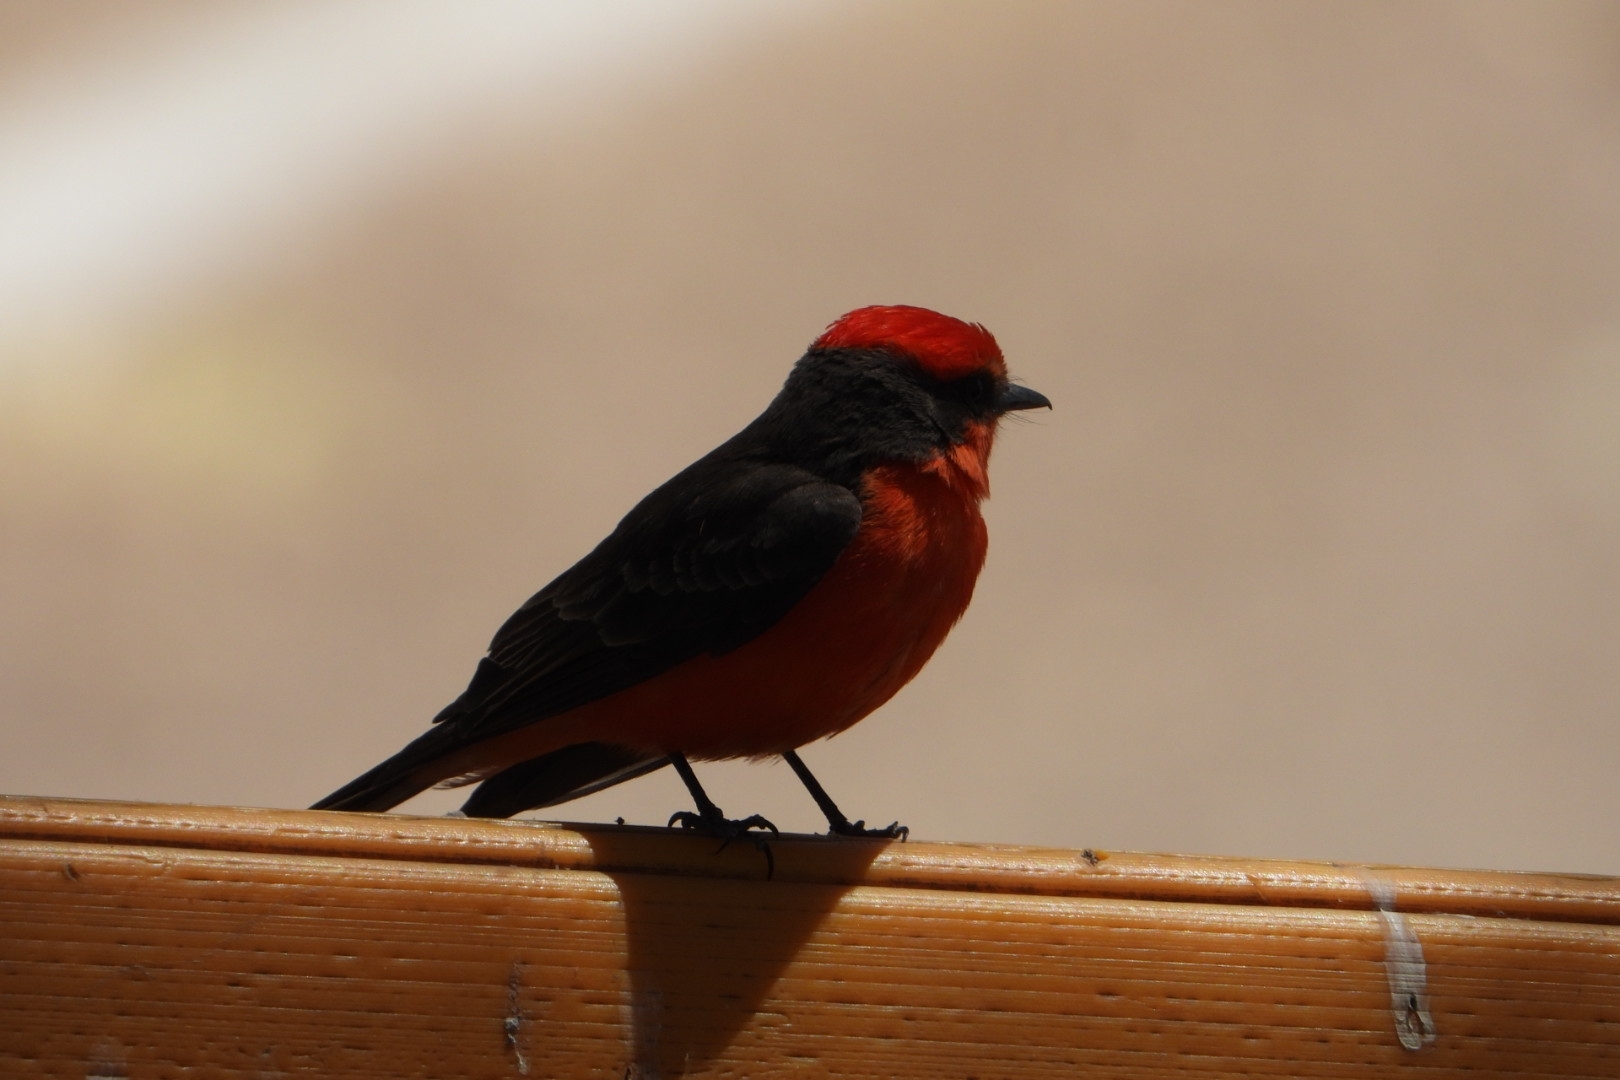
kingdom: Animalia
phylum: Chordata
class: Aves
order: Passeriformes
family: Tyrannidae
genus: Pyrocephalus
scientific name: Pyrocephalus rubinus
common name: Vermilion flycatcher
